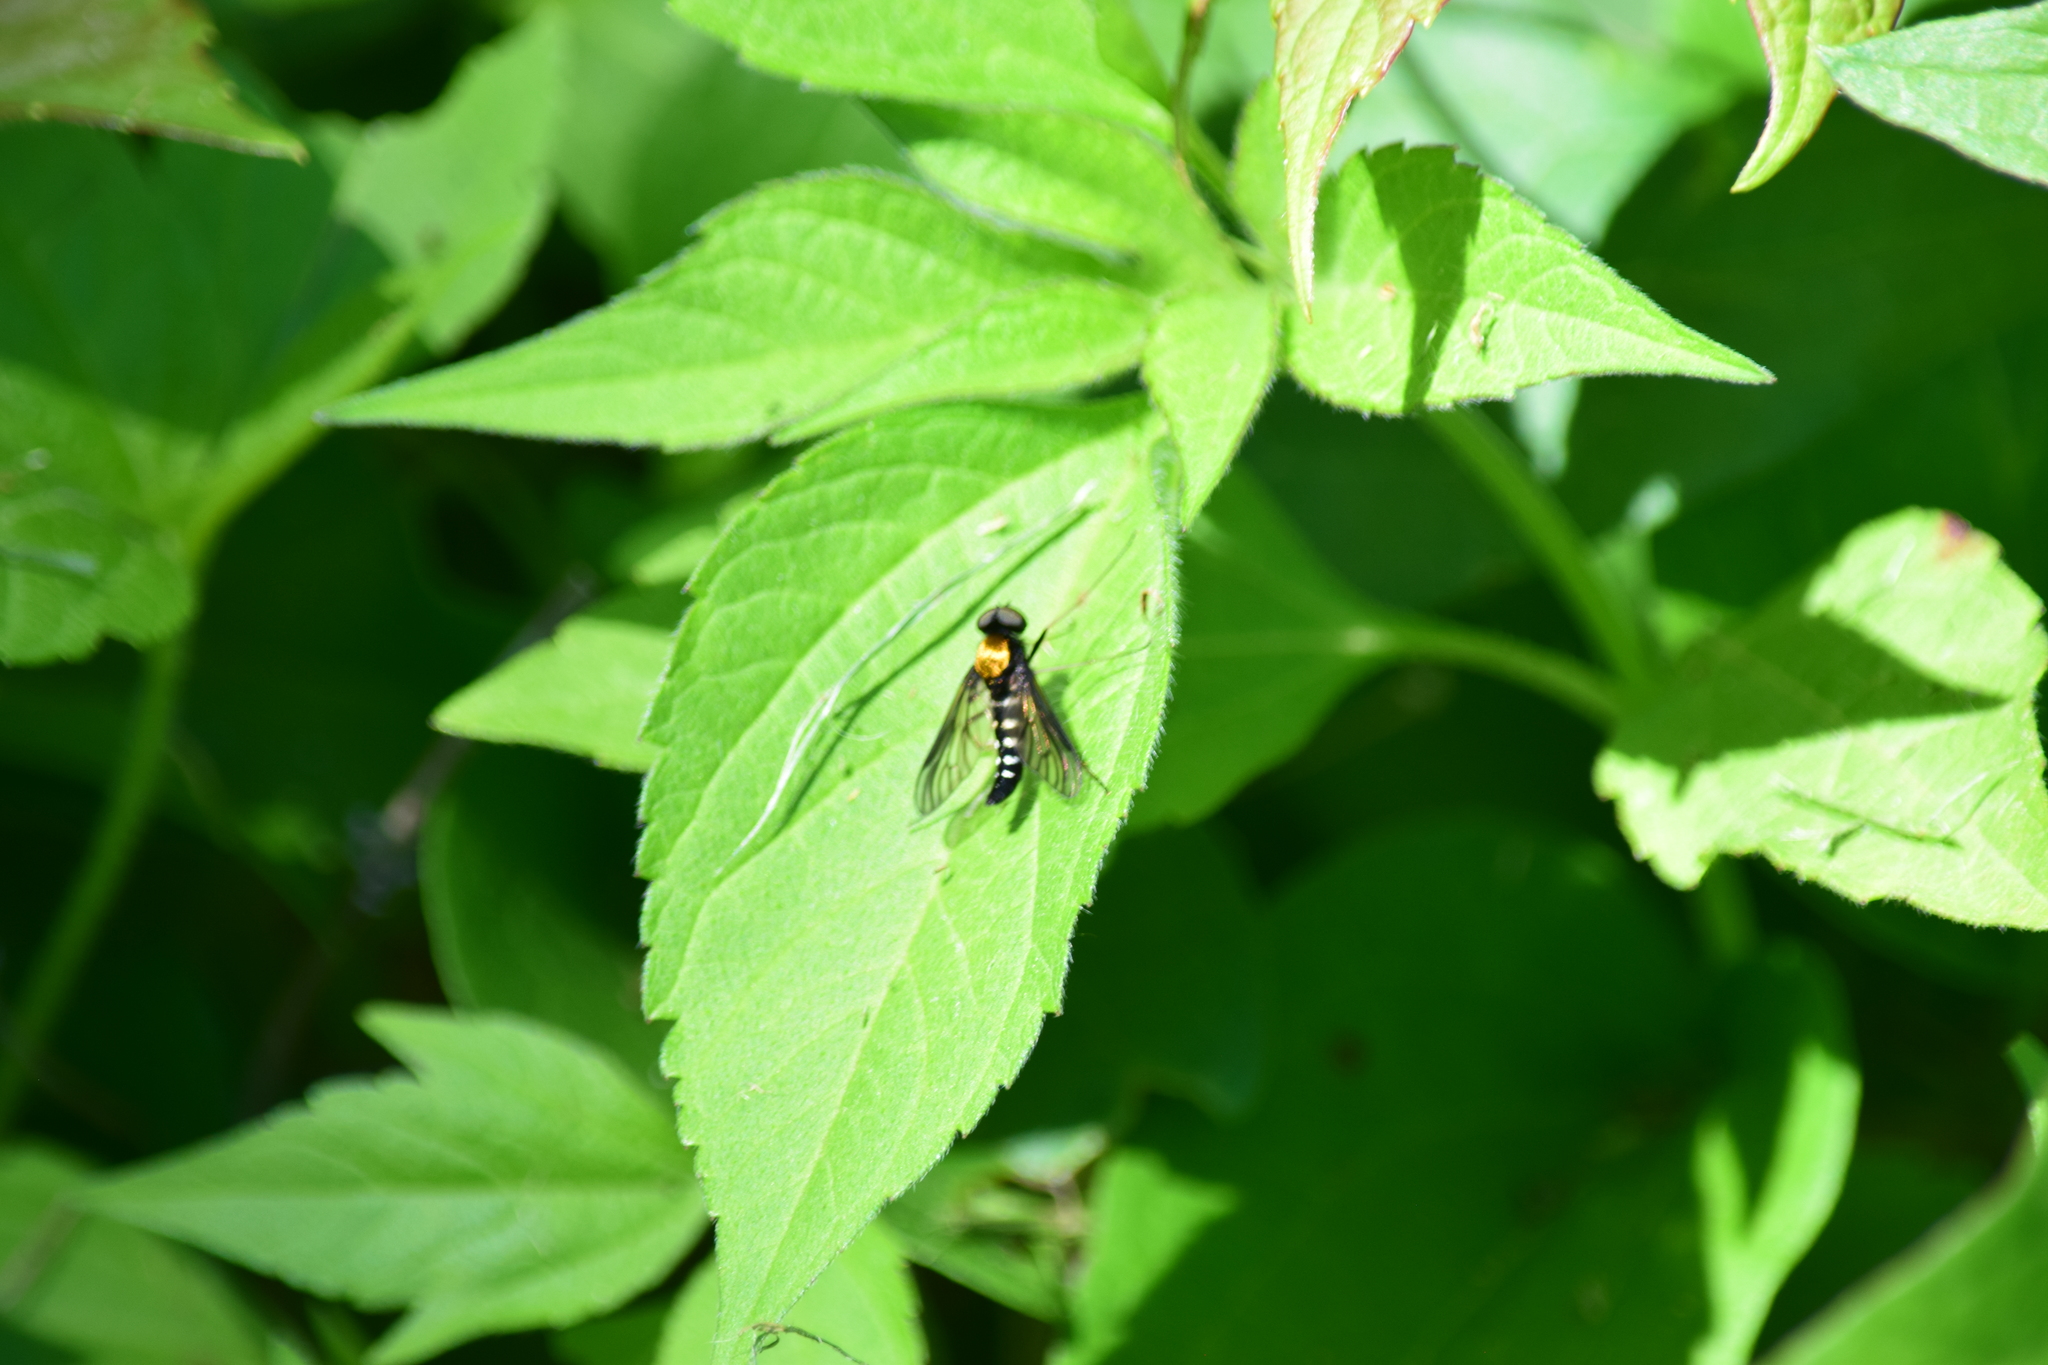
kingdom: Animalia
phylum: Arthropoda
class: Insecta
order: Diptera
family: Rhagionidae
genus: Chrysopilus
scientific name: Chrysopilus thoracicus
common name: Golden-backed snipe fly
